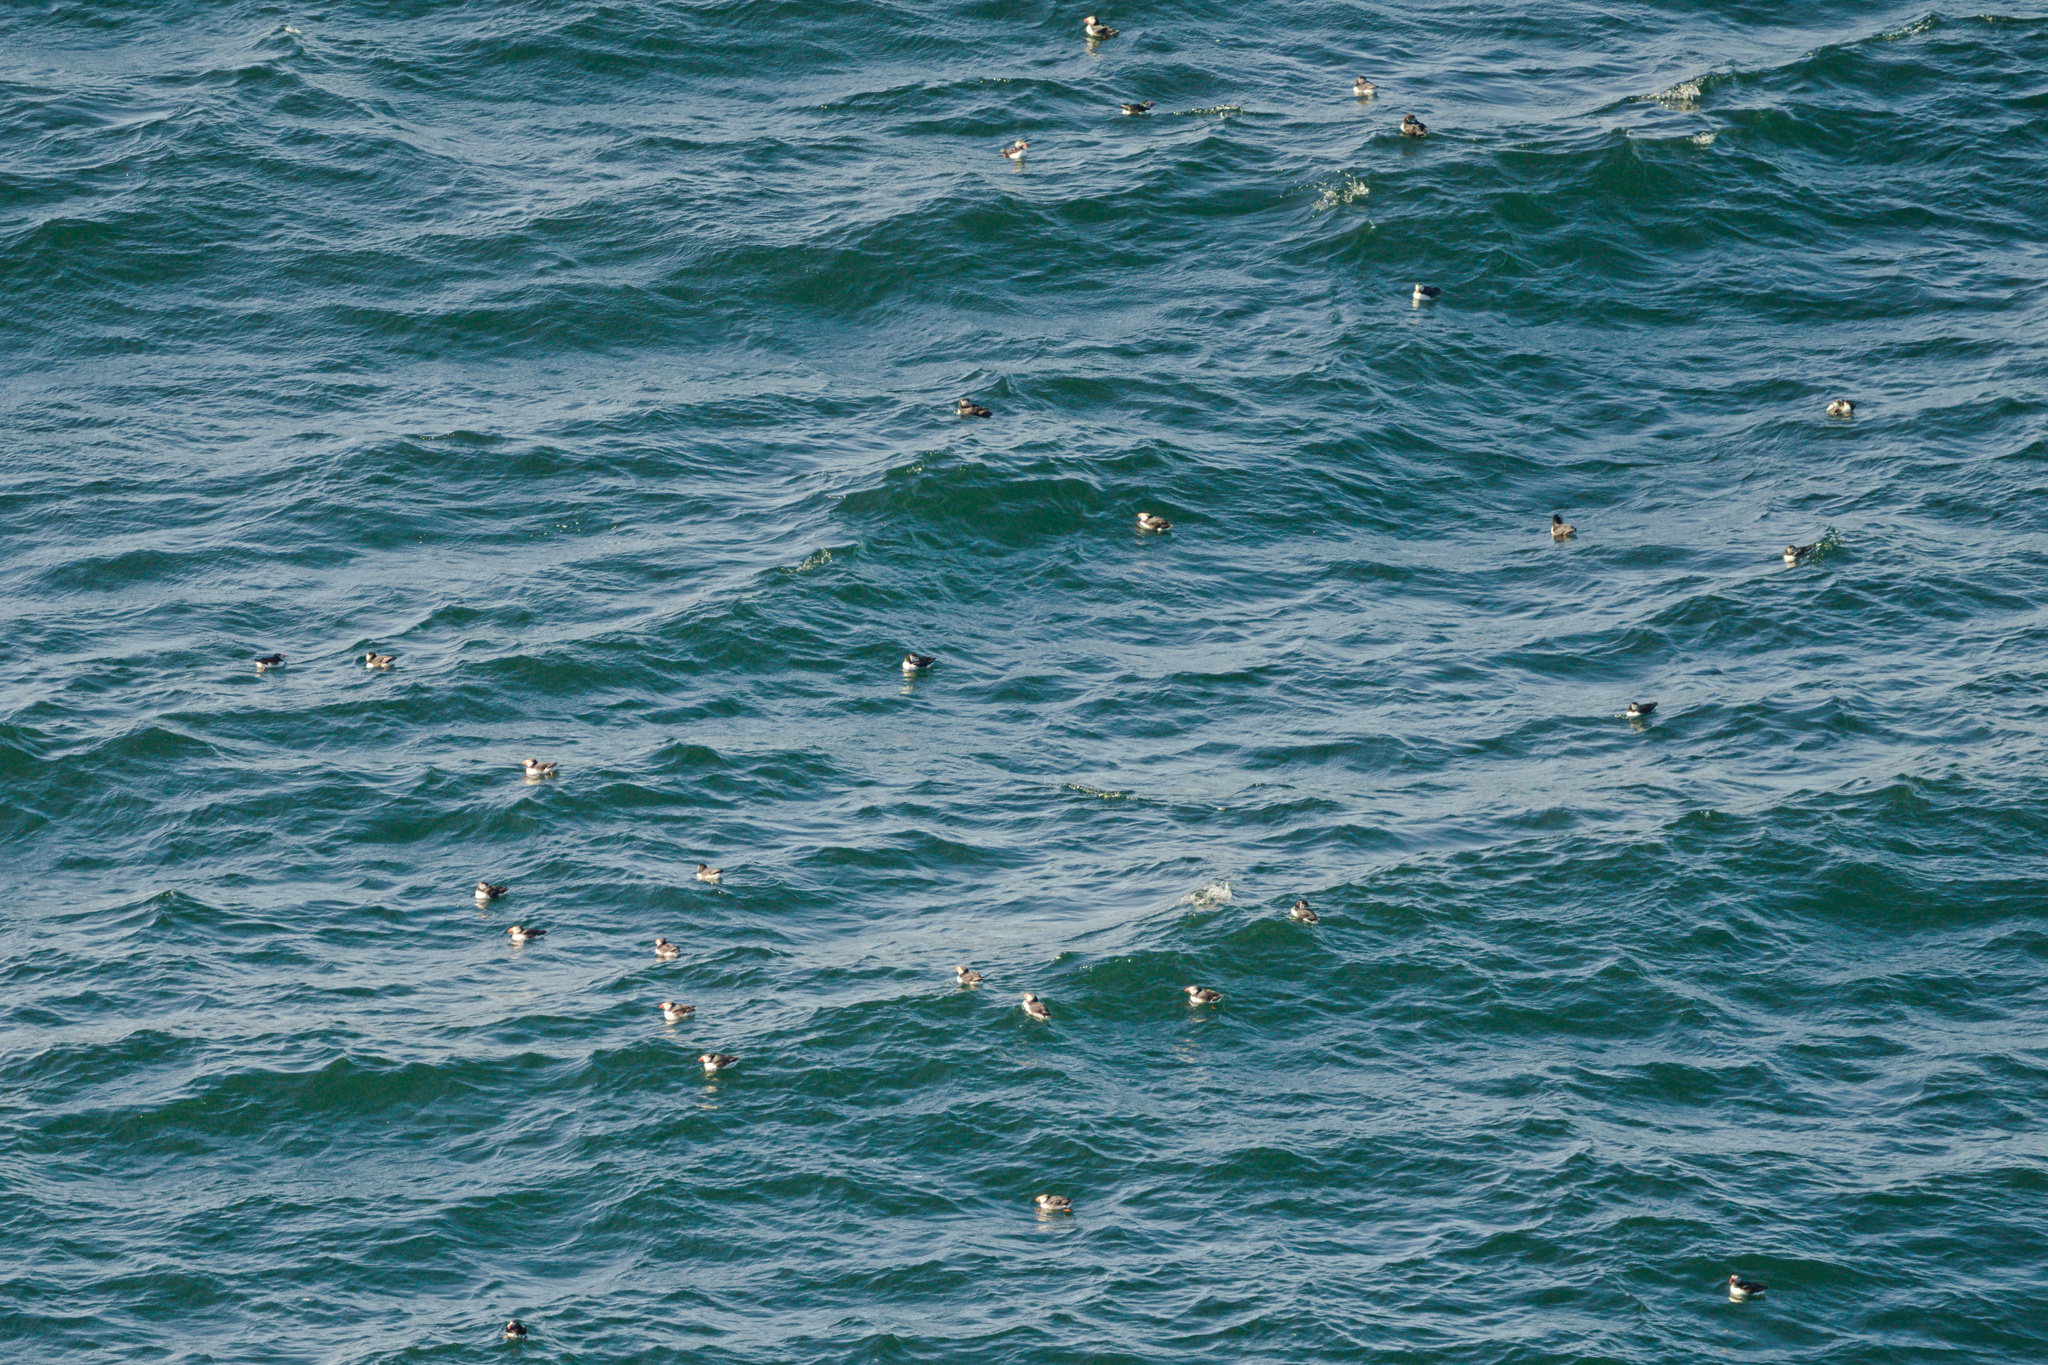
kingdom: Animalia
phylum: Chordata
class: Aves
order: Charadriiformes
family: Alcidae
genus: Fratercula
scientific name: Fratercula arctica
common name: Atlantic puffin
